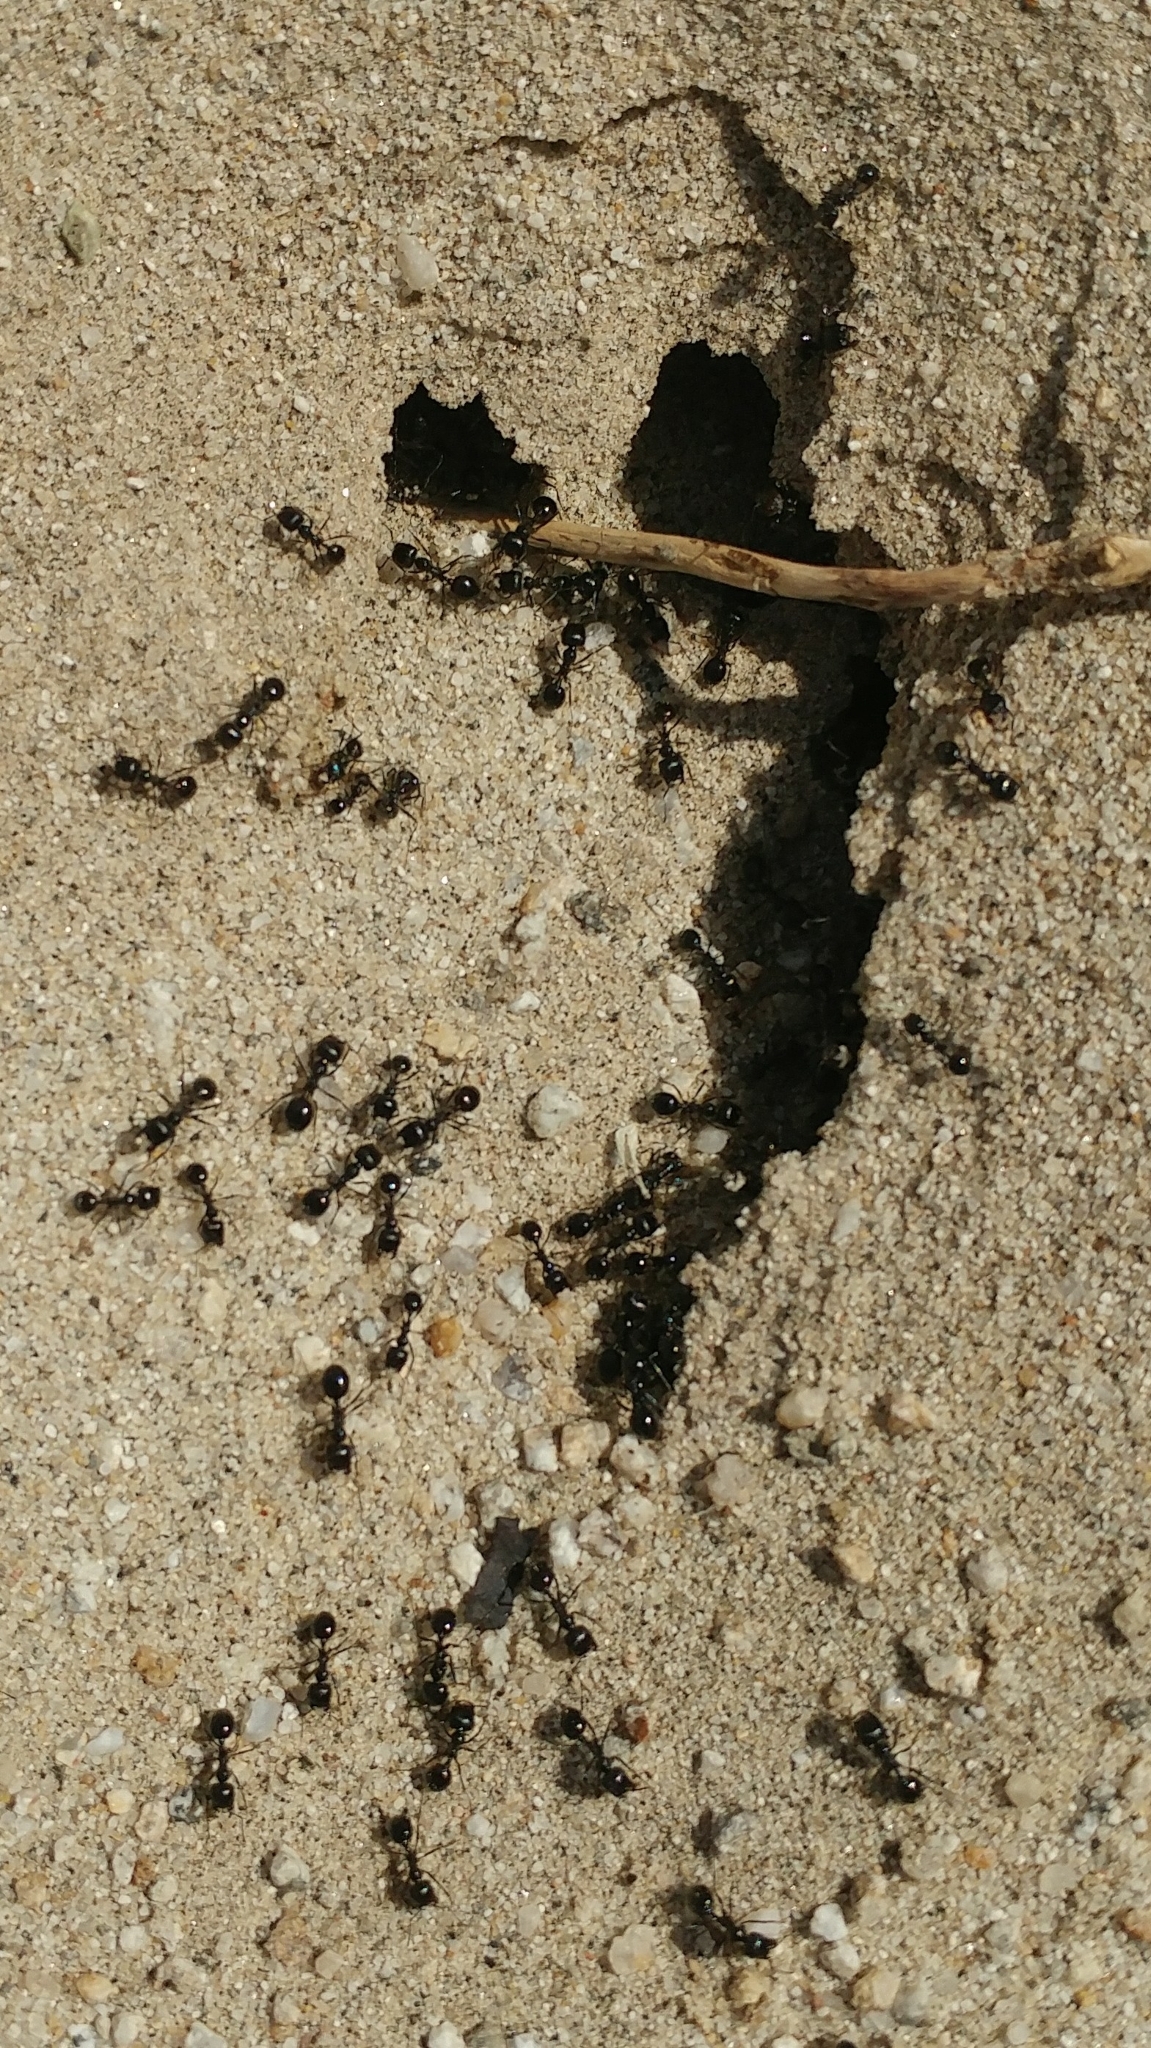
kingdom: Animalia
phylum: Arthropoda
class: Insecta
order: Hymenoptera
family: Formicidae
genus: Messor
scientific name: Messor pergandei
